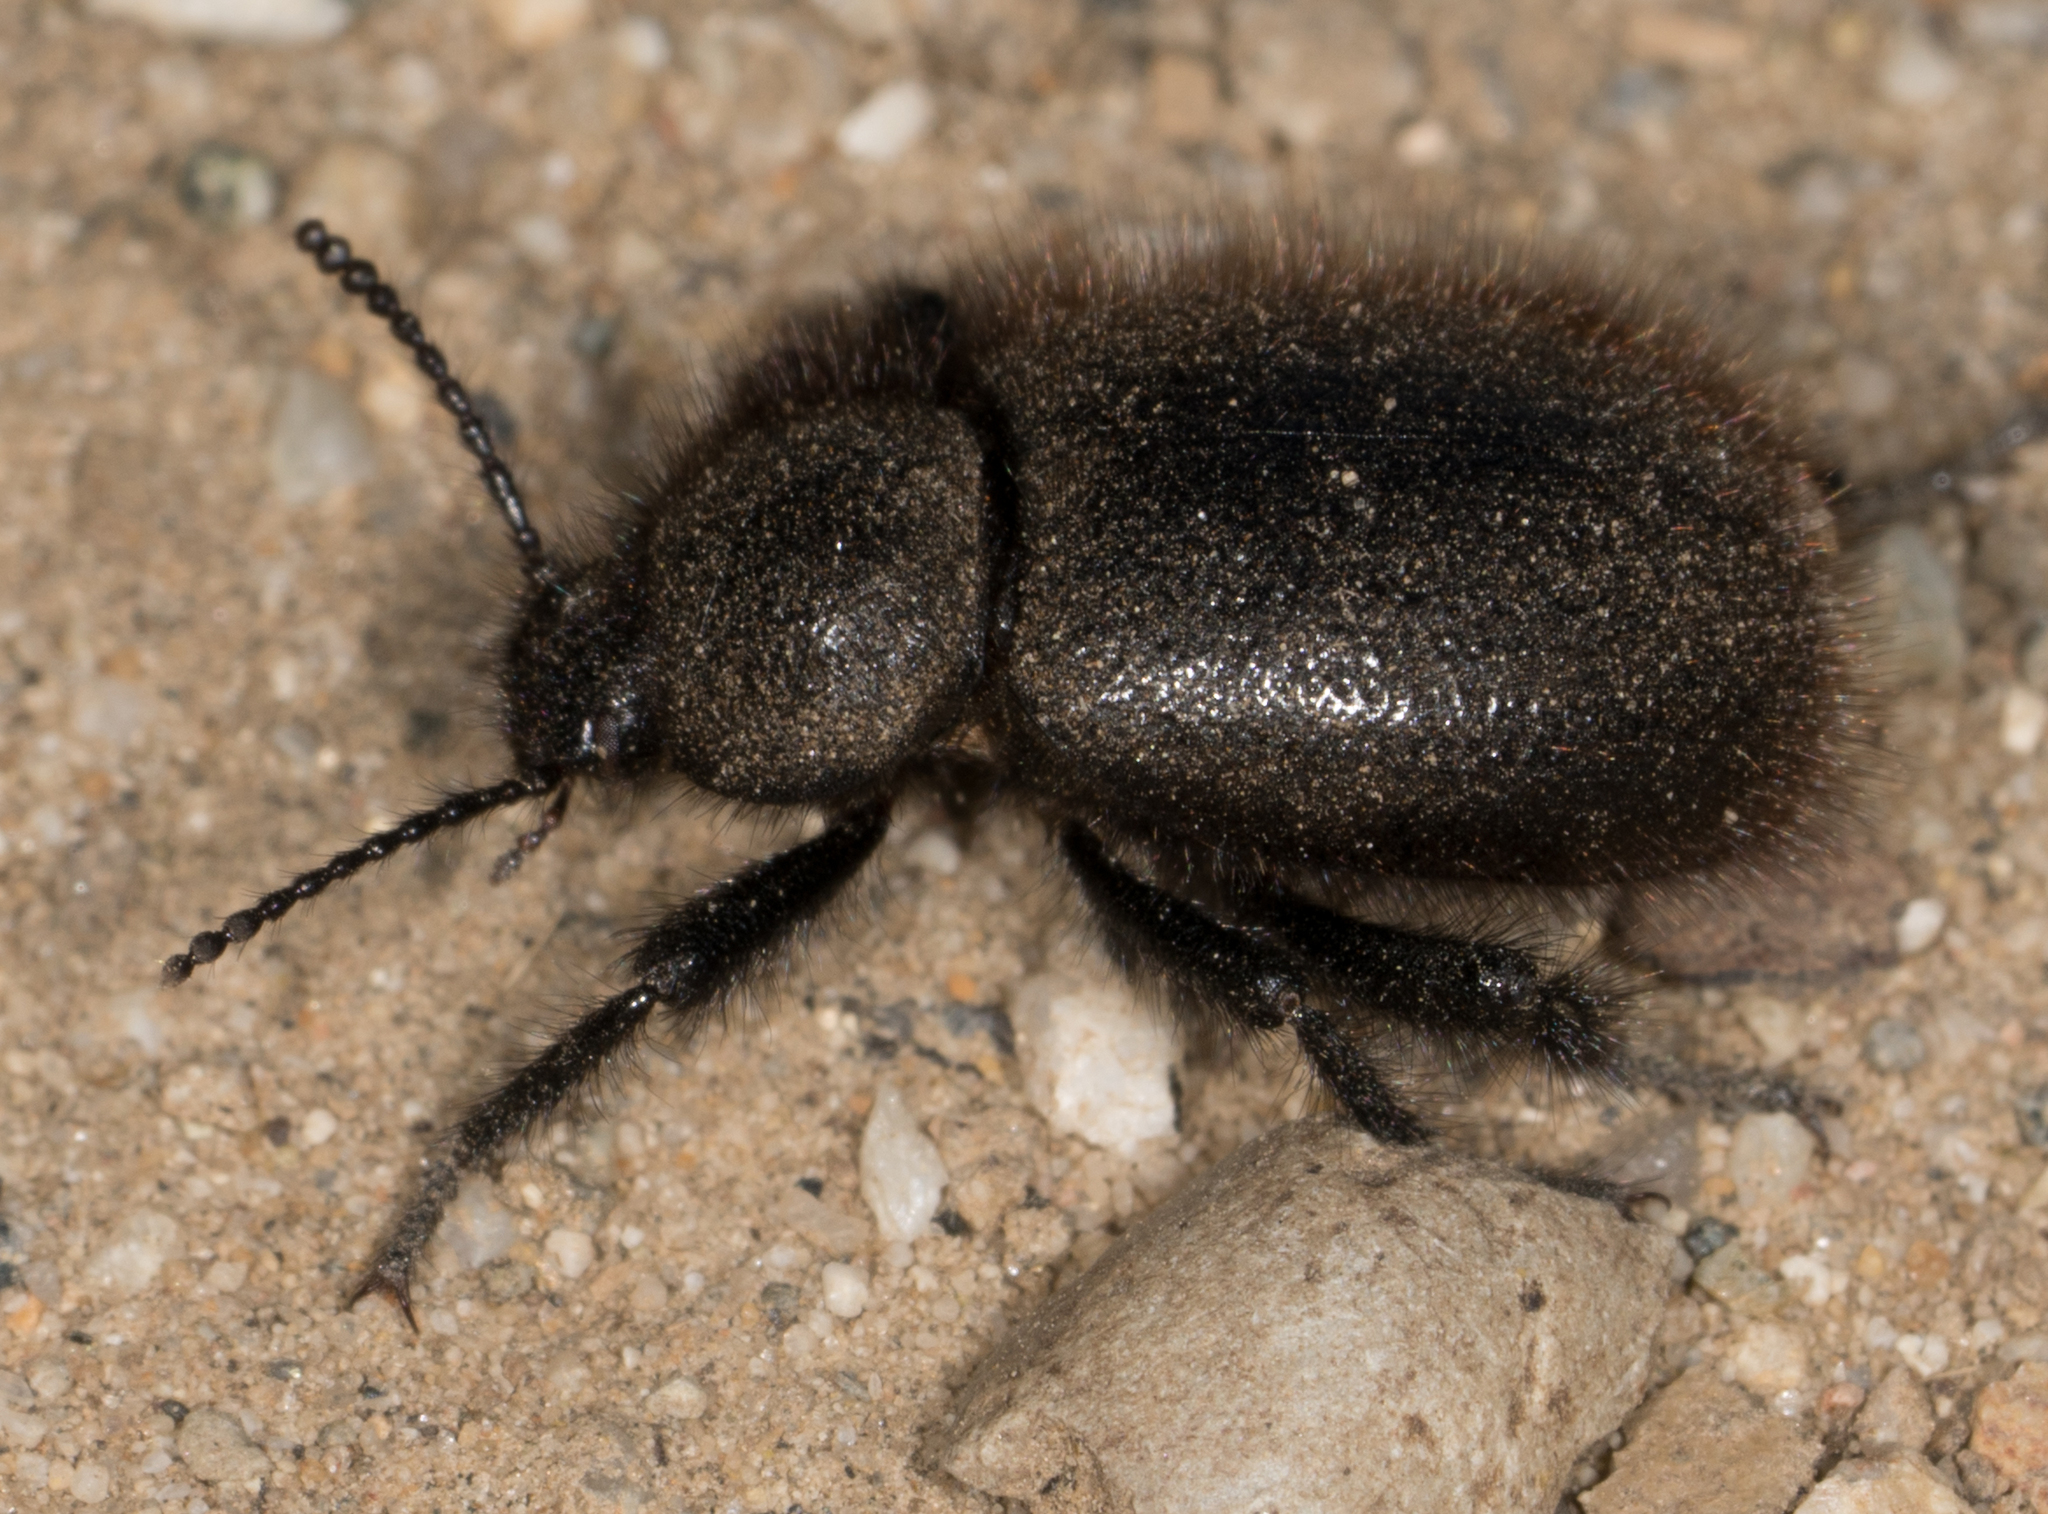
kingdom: Animalia
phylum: Arthropoda
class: Insecta
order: Coleoptera
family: Tenebrionidae
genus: Eleodes
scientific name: Eleodes osculans
